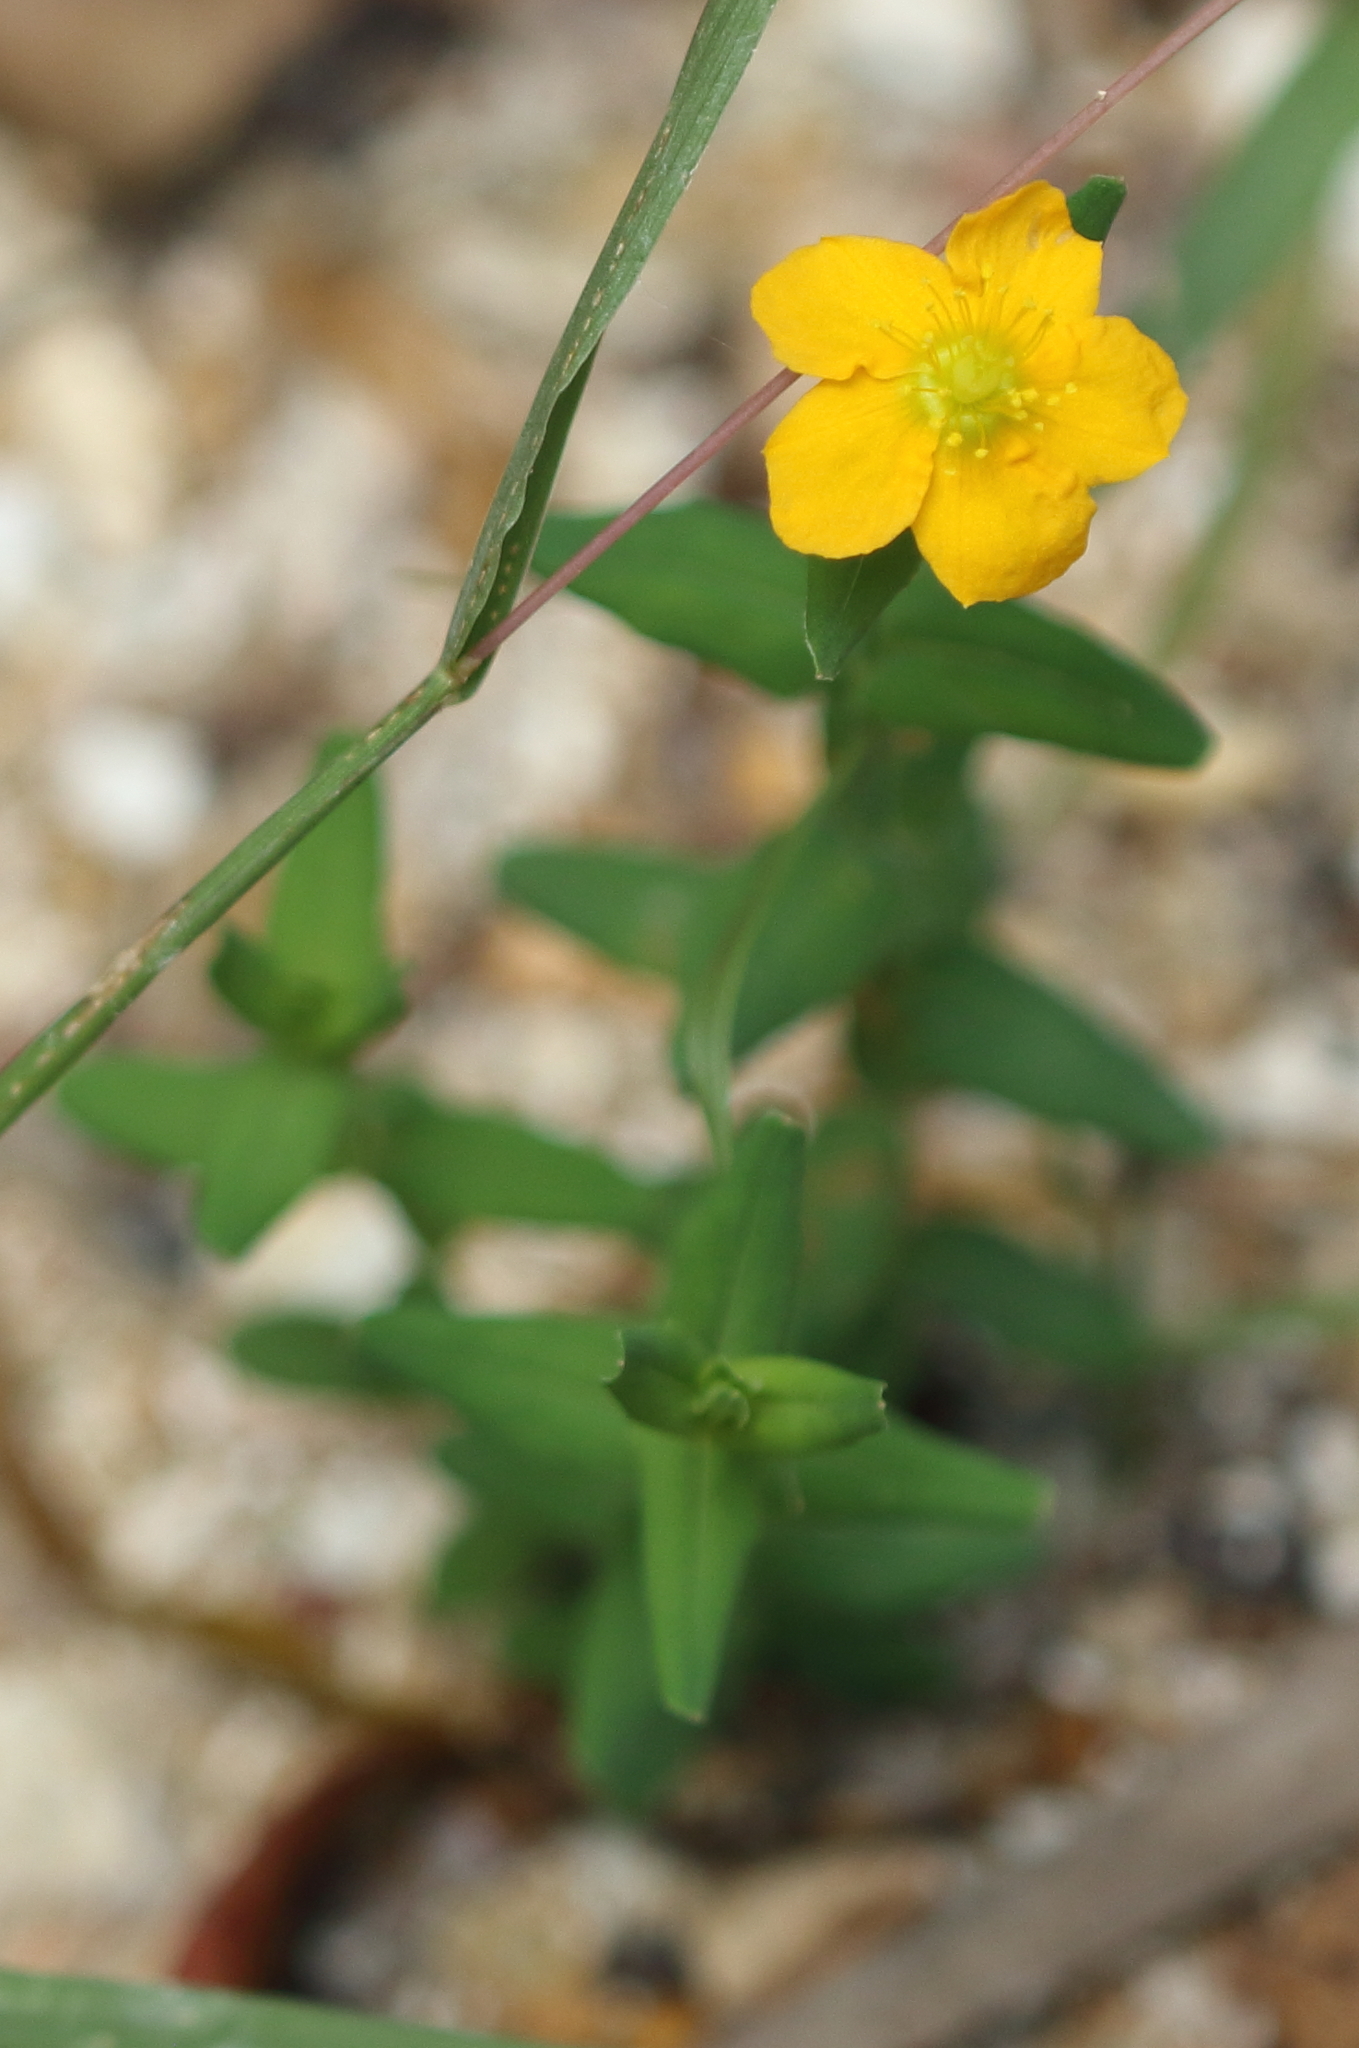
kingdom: Plantae
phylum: Tracheophyta
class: Magnoliopsida
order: Malpighiales
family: Hypericaceae
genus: Hypericum
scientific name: Hypericum gramineum
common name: Grassy st. johnswort
